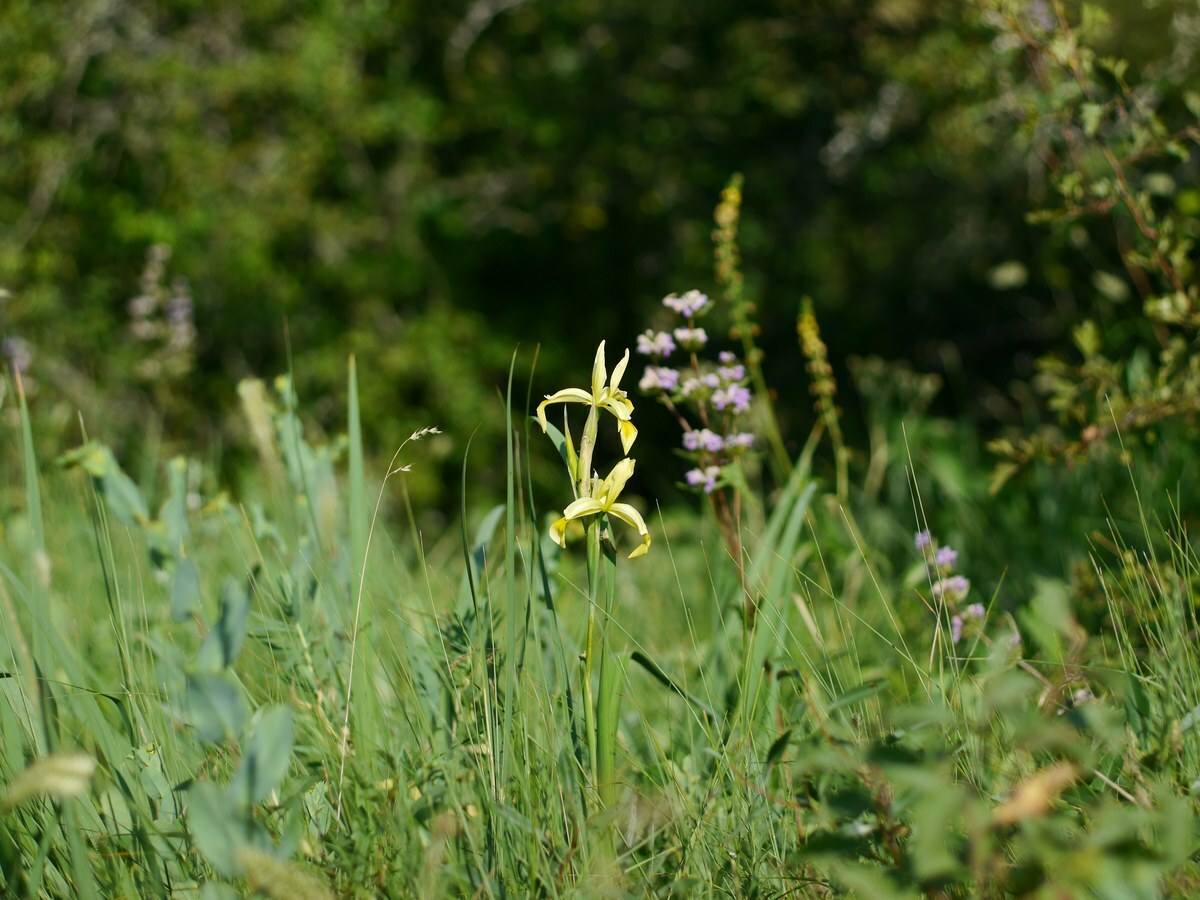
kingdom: Plantae
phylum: Tracheophyta
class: Liliopsida
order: Asparagales
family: Iridaceae
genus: Iris
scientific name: Iris halophila
